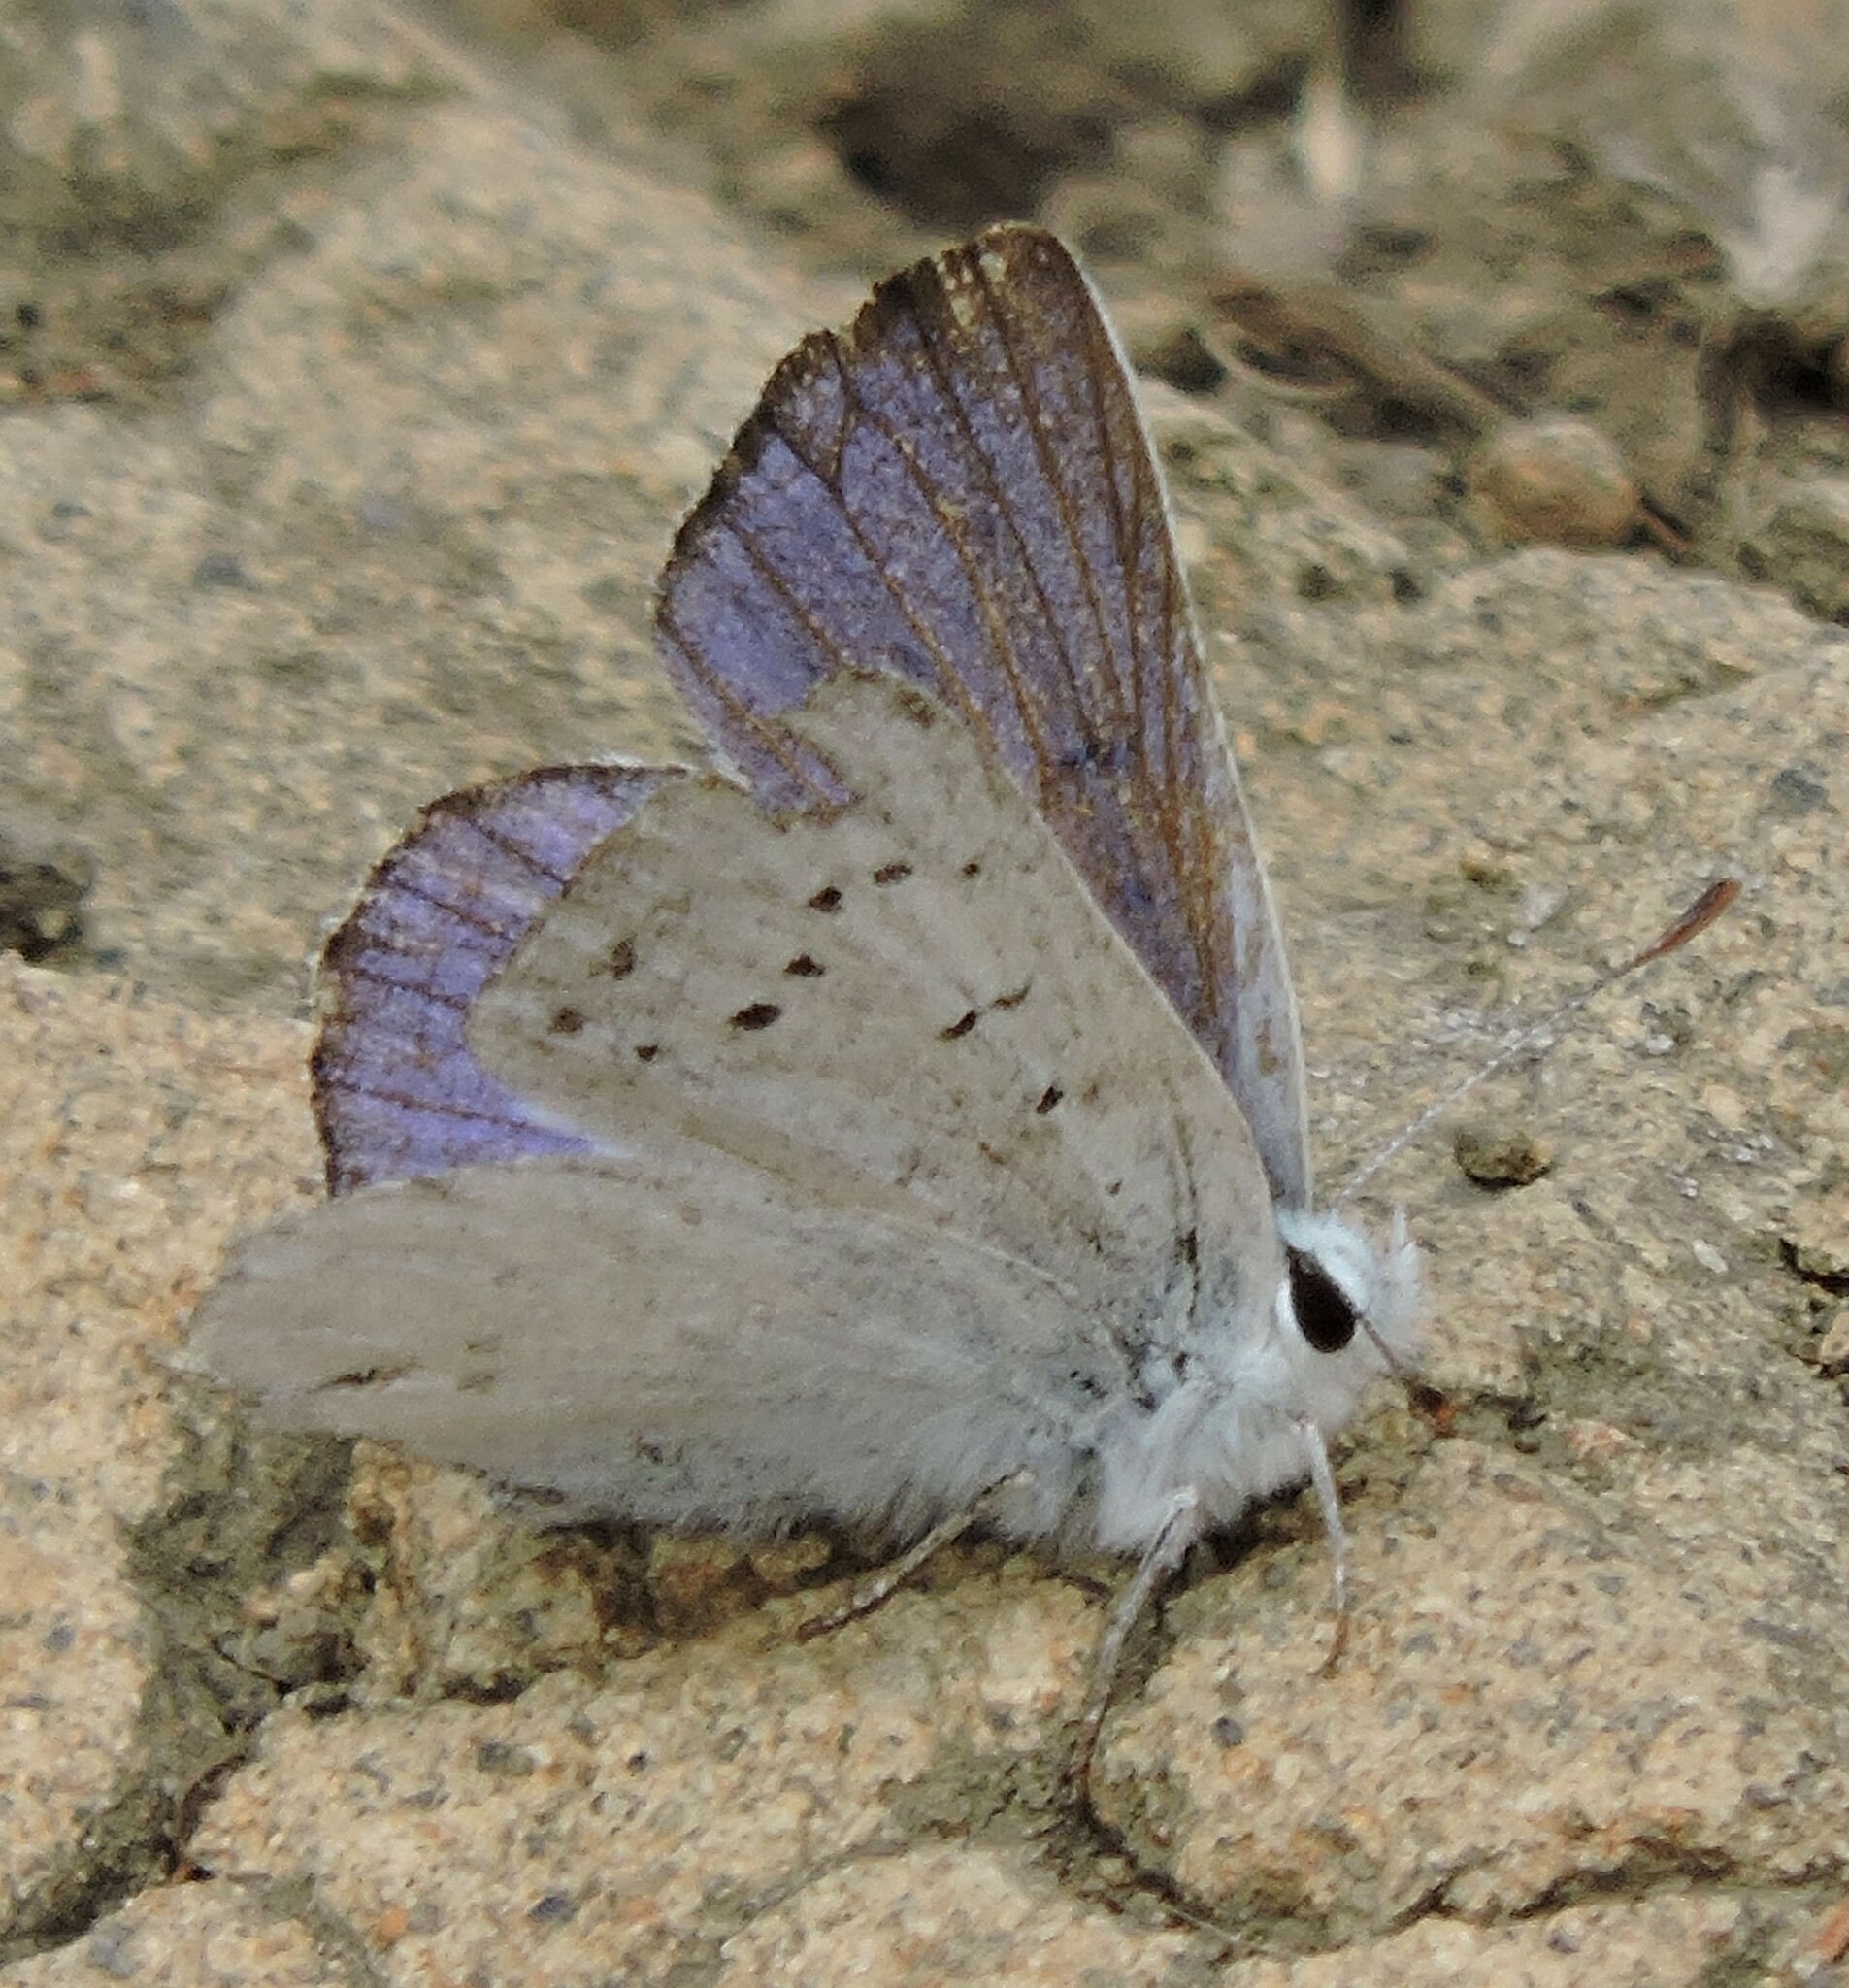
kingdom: Animalia
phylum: Arthropoda
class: Insecta
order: Lepidoptera
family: Lycaenidae
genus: Tharsalea
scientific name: Tharsalea heteronea
